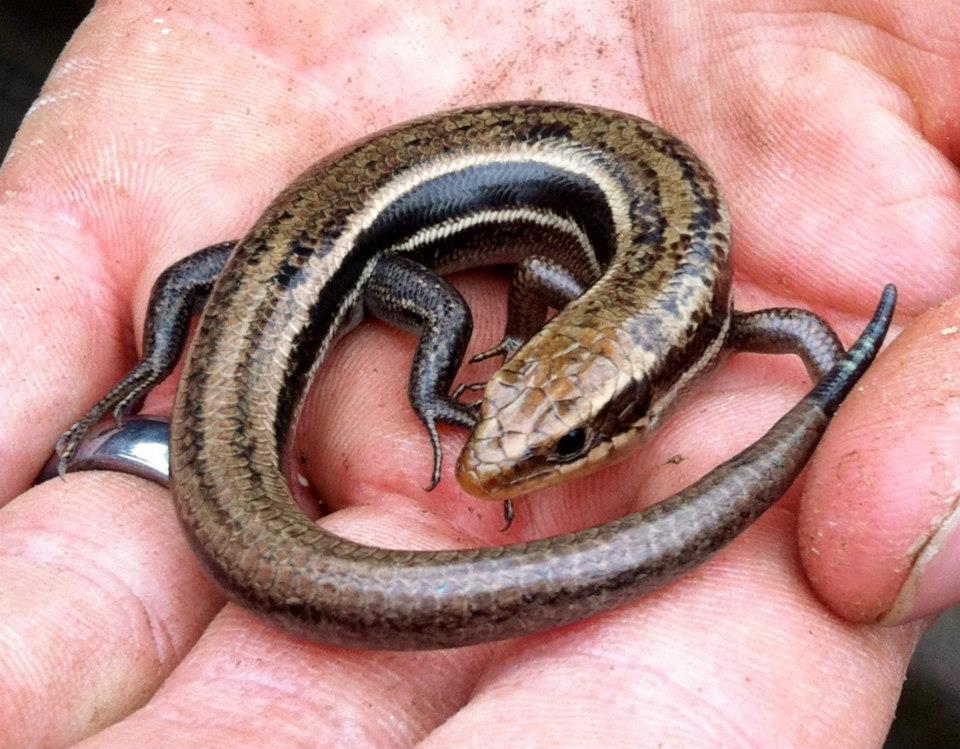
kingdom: Animalia
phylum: Chordata
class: Squamata
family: Scincidae
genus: Plestiodon
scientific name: Plestiodon anthracinus
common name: Coal skink
